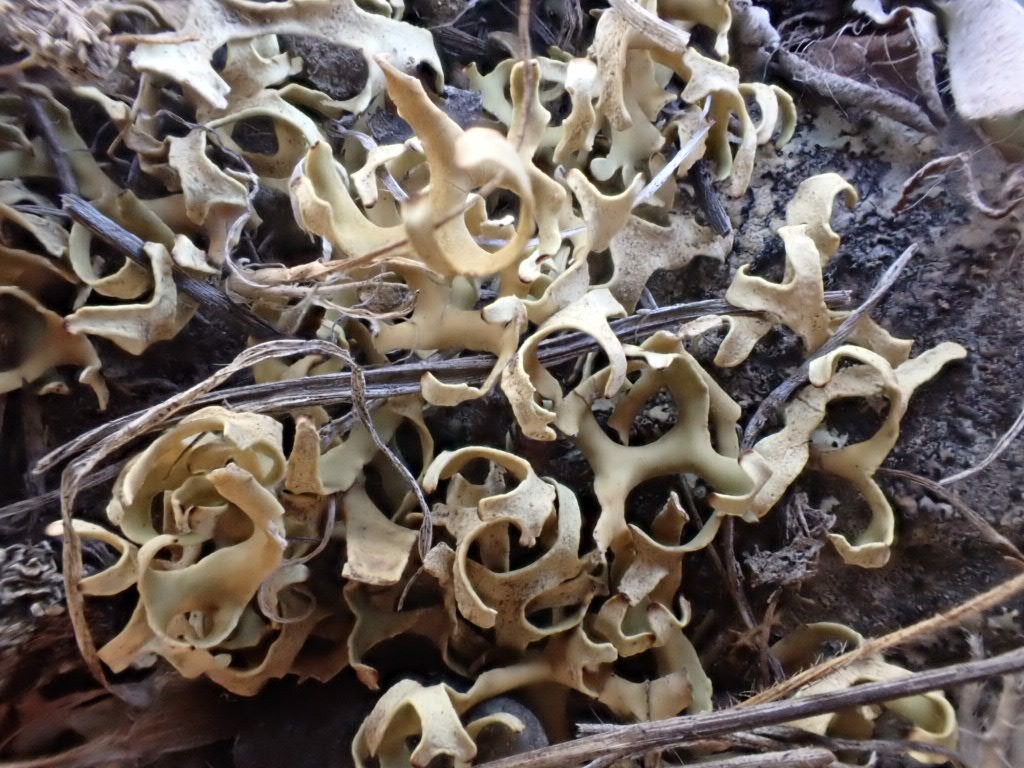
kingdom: Fungi
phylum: Ascomycota
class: Lecanoromycetes
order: Lecanorales
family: Parmeliaceae
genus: Xanthoparmelia
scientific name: Xanthoparmelia semiviridis
